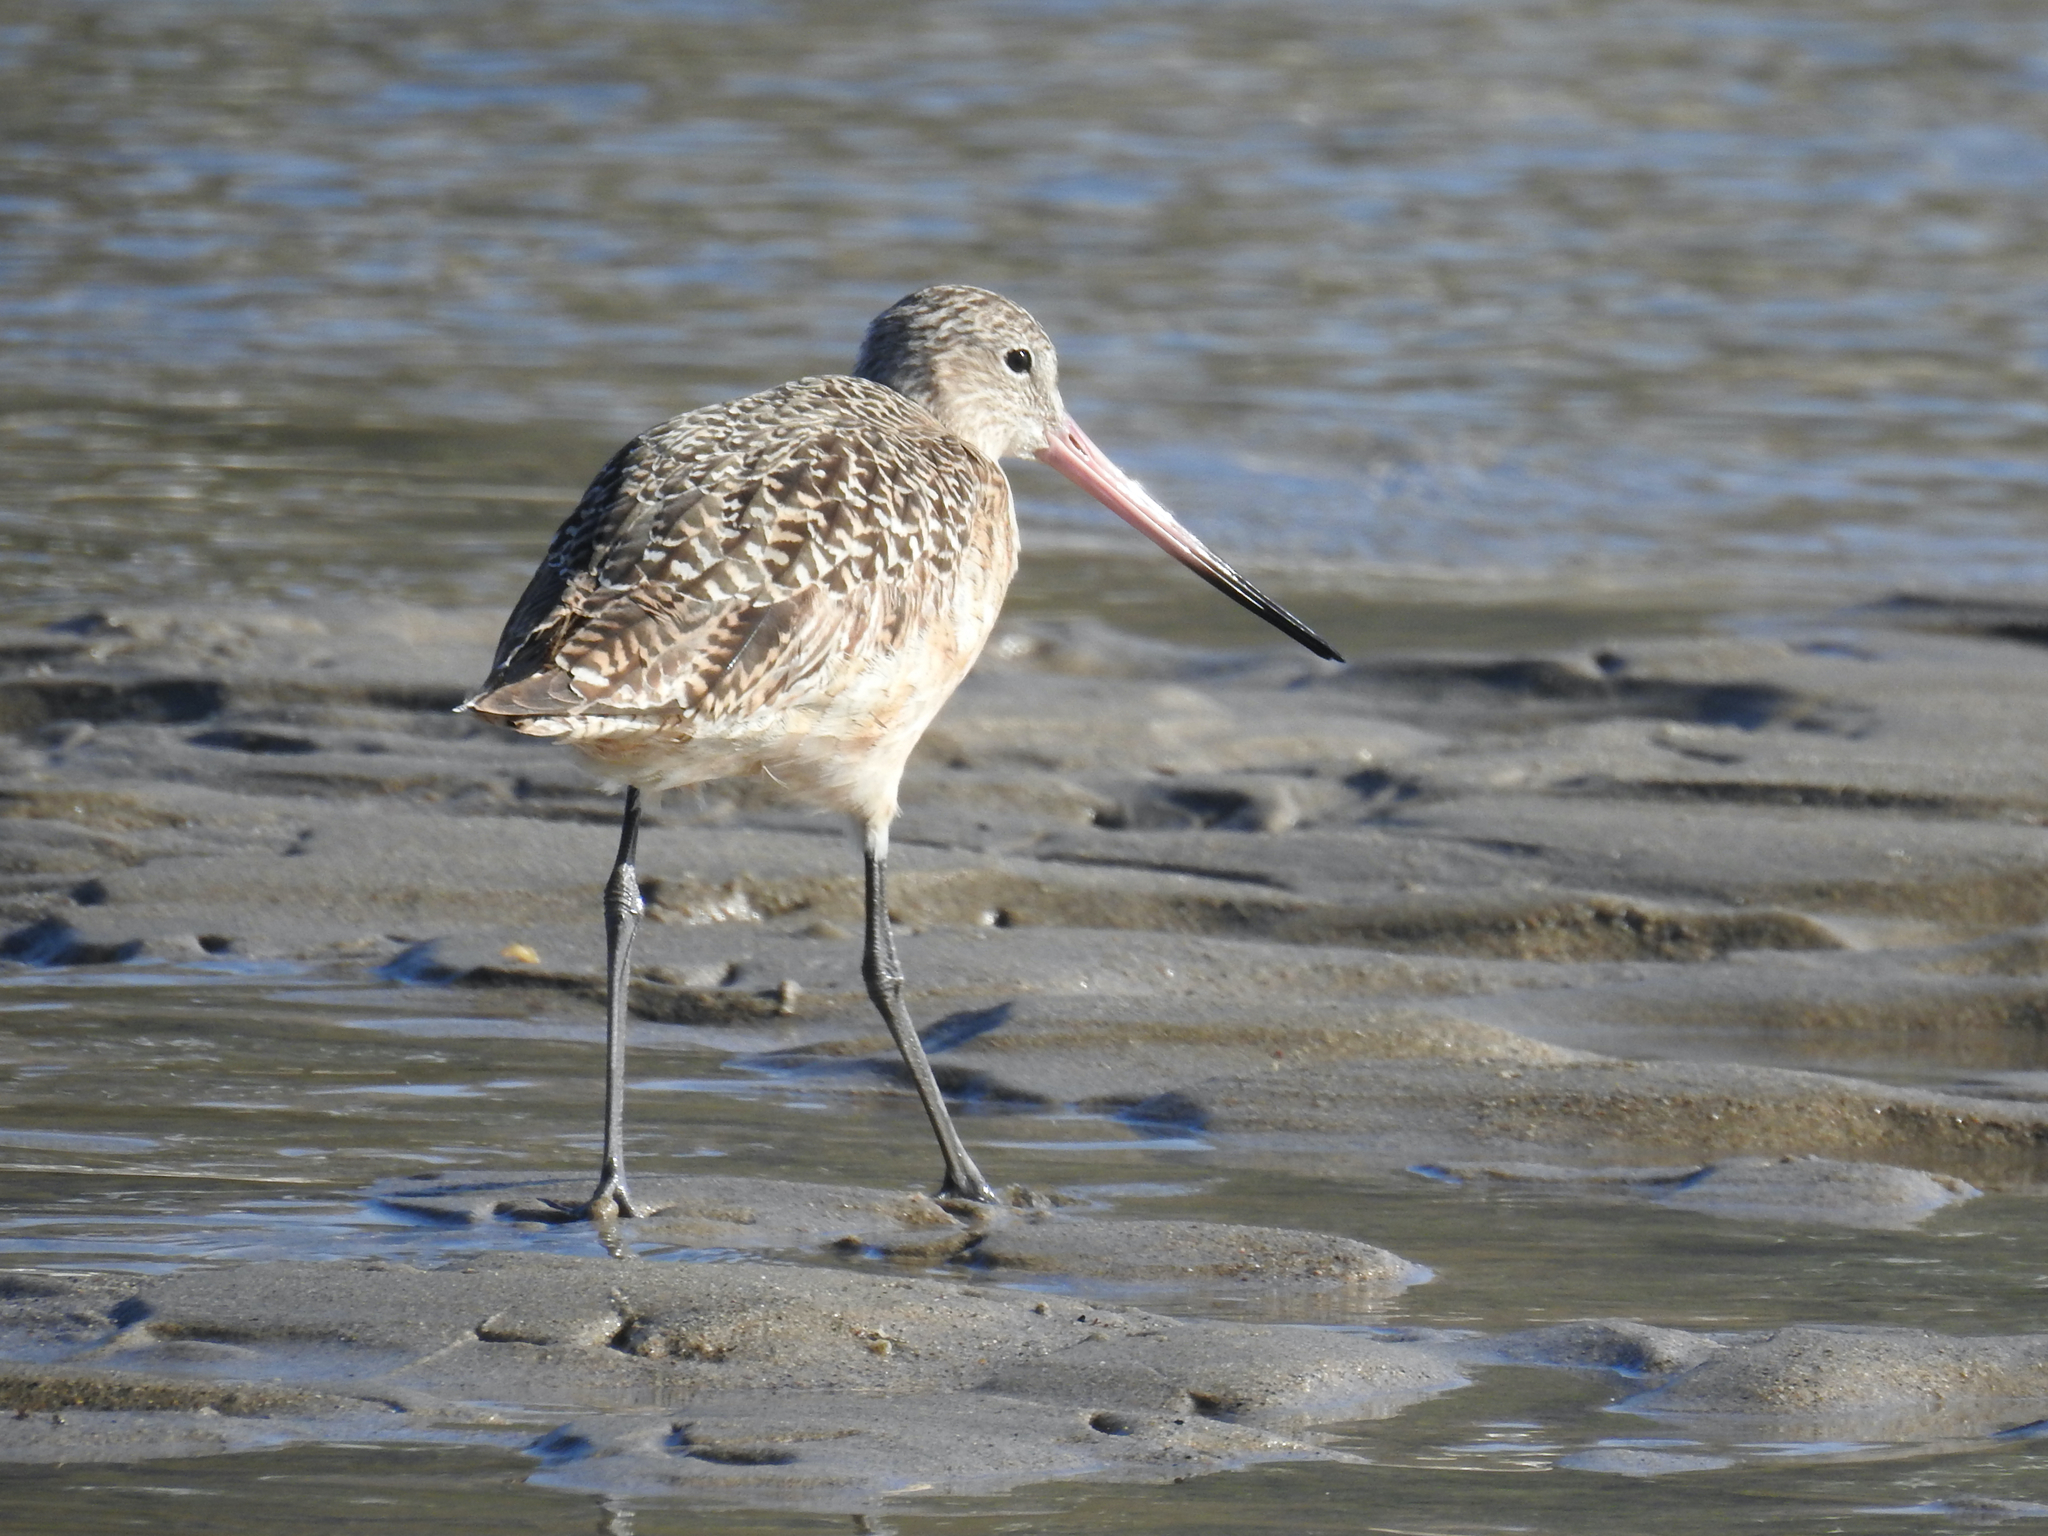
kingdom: Animalia
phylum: Chordata
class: Aves
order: Charadriiformes
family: Scolopacidae
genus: Limosa
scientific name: Limosa fedoa
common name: Marbled godwit
